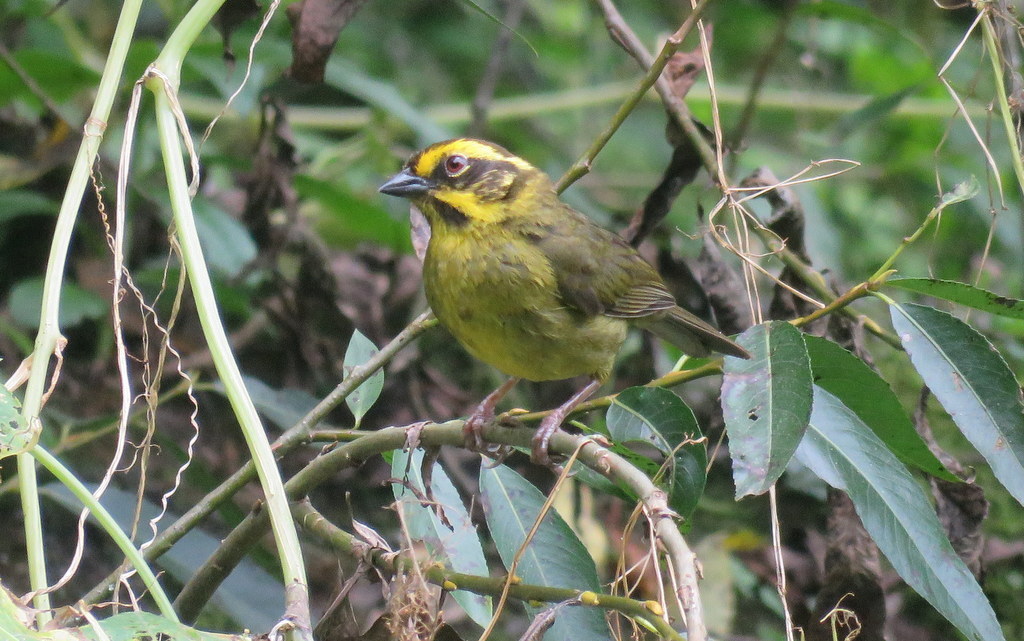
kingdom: Animalia
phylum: Chordata
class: Aves
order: Passeriformes
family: Passerellidae
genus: Atlapetes
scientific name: Atlapetes citrinellus
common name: Yellow-striped brushfinch
